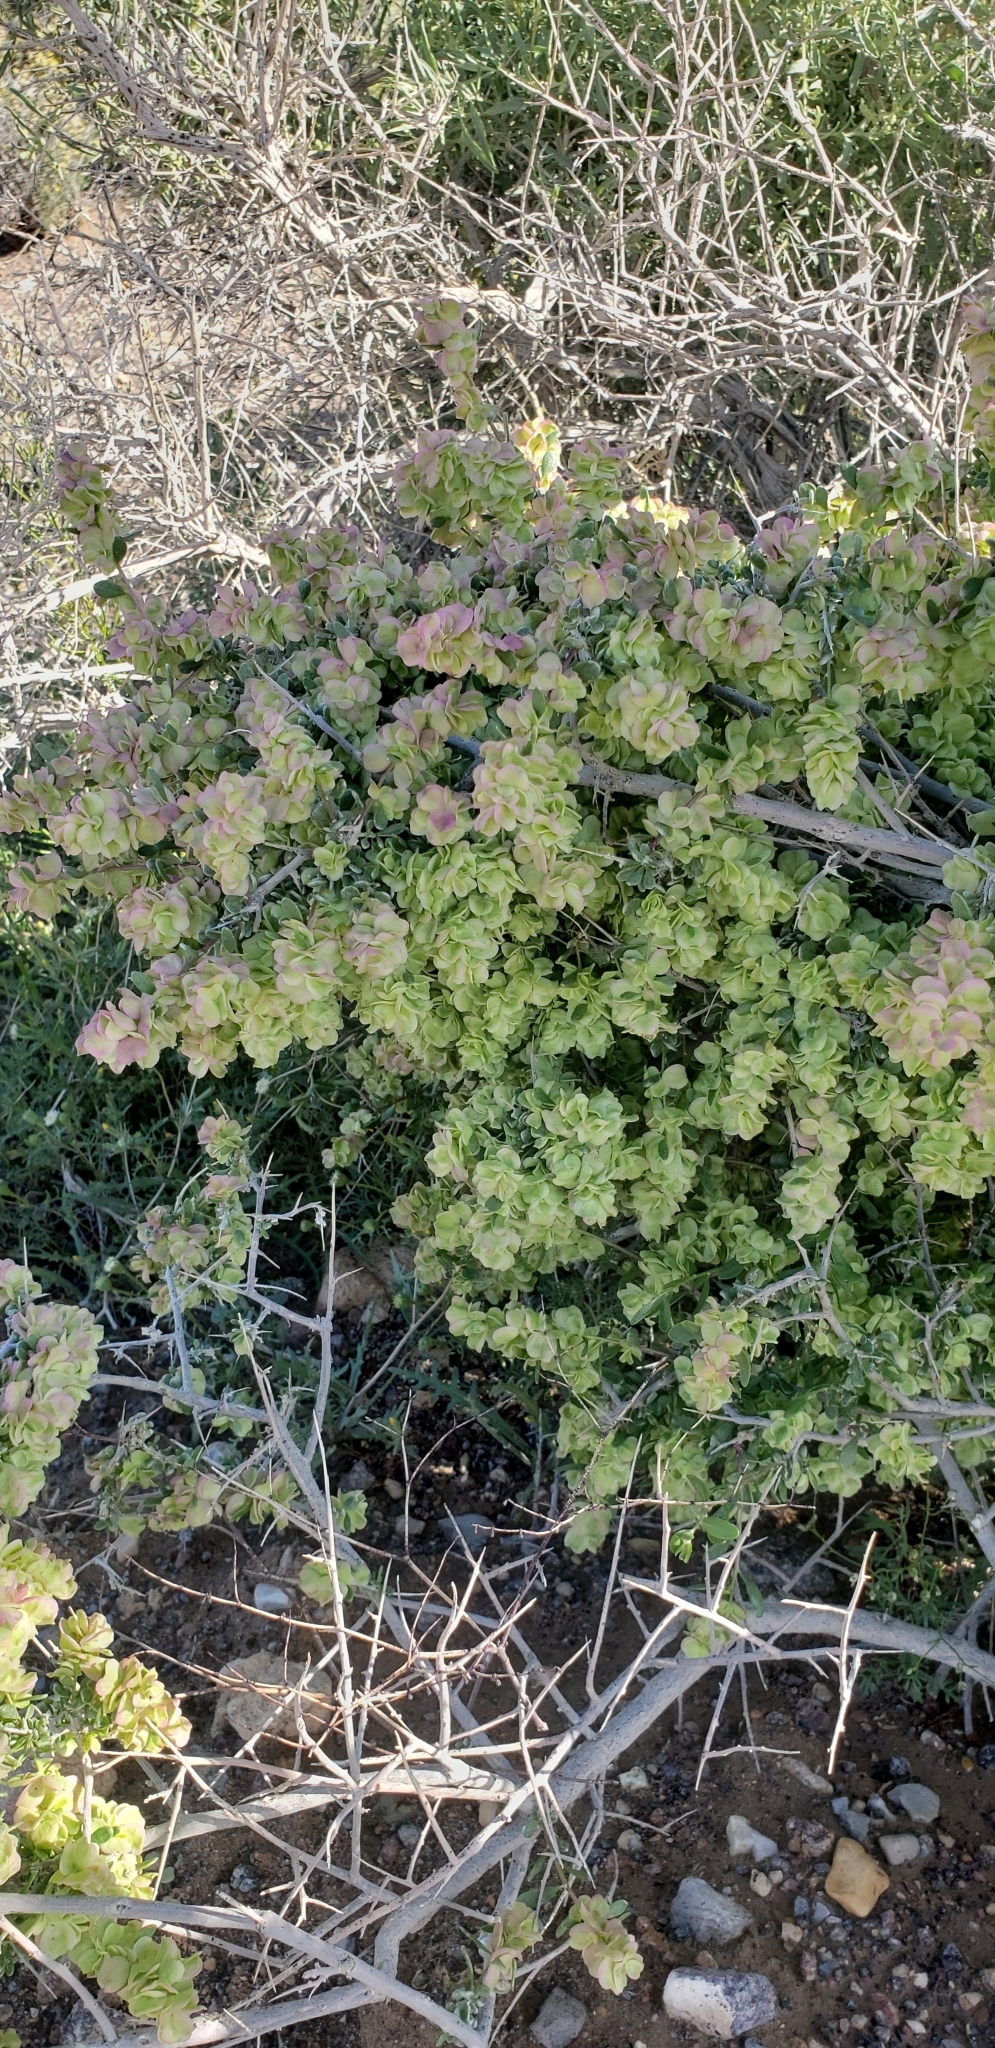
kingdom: Plantae
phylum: Tracheophyta
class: Magnoliopsida
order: Caryophyllales
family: Amaranthaceae
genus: Grayia
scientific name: Grayia spinosa
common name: Spiny hopsage
